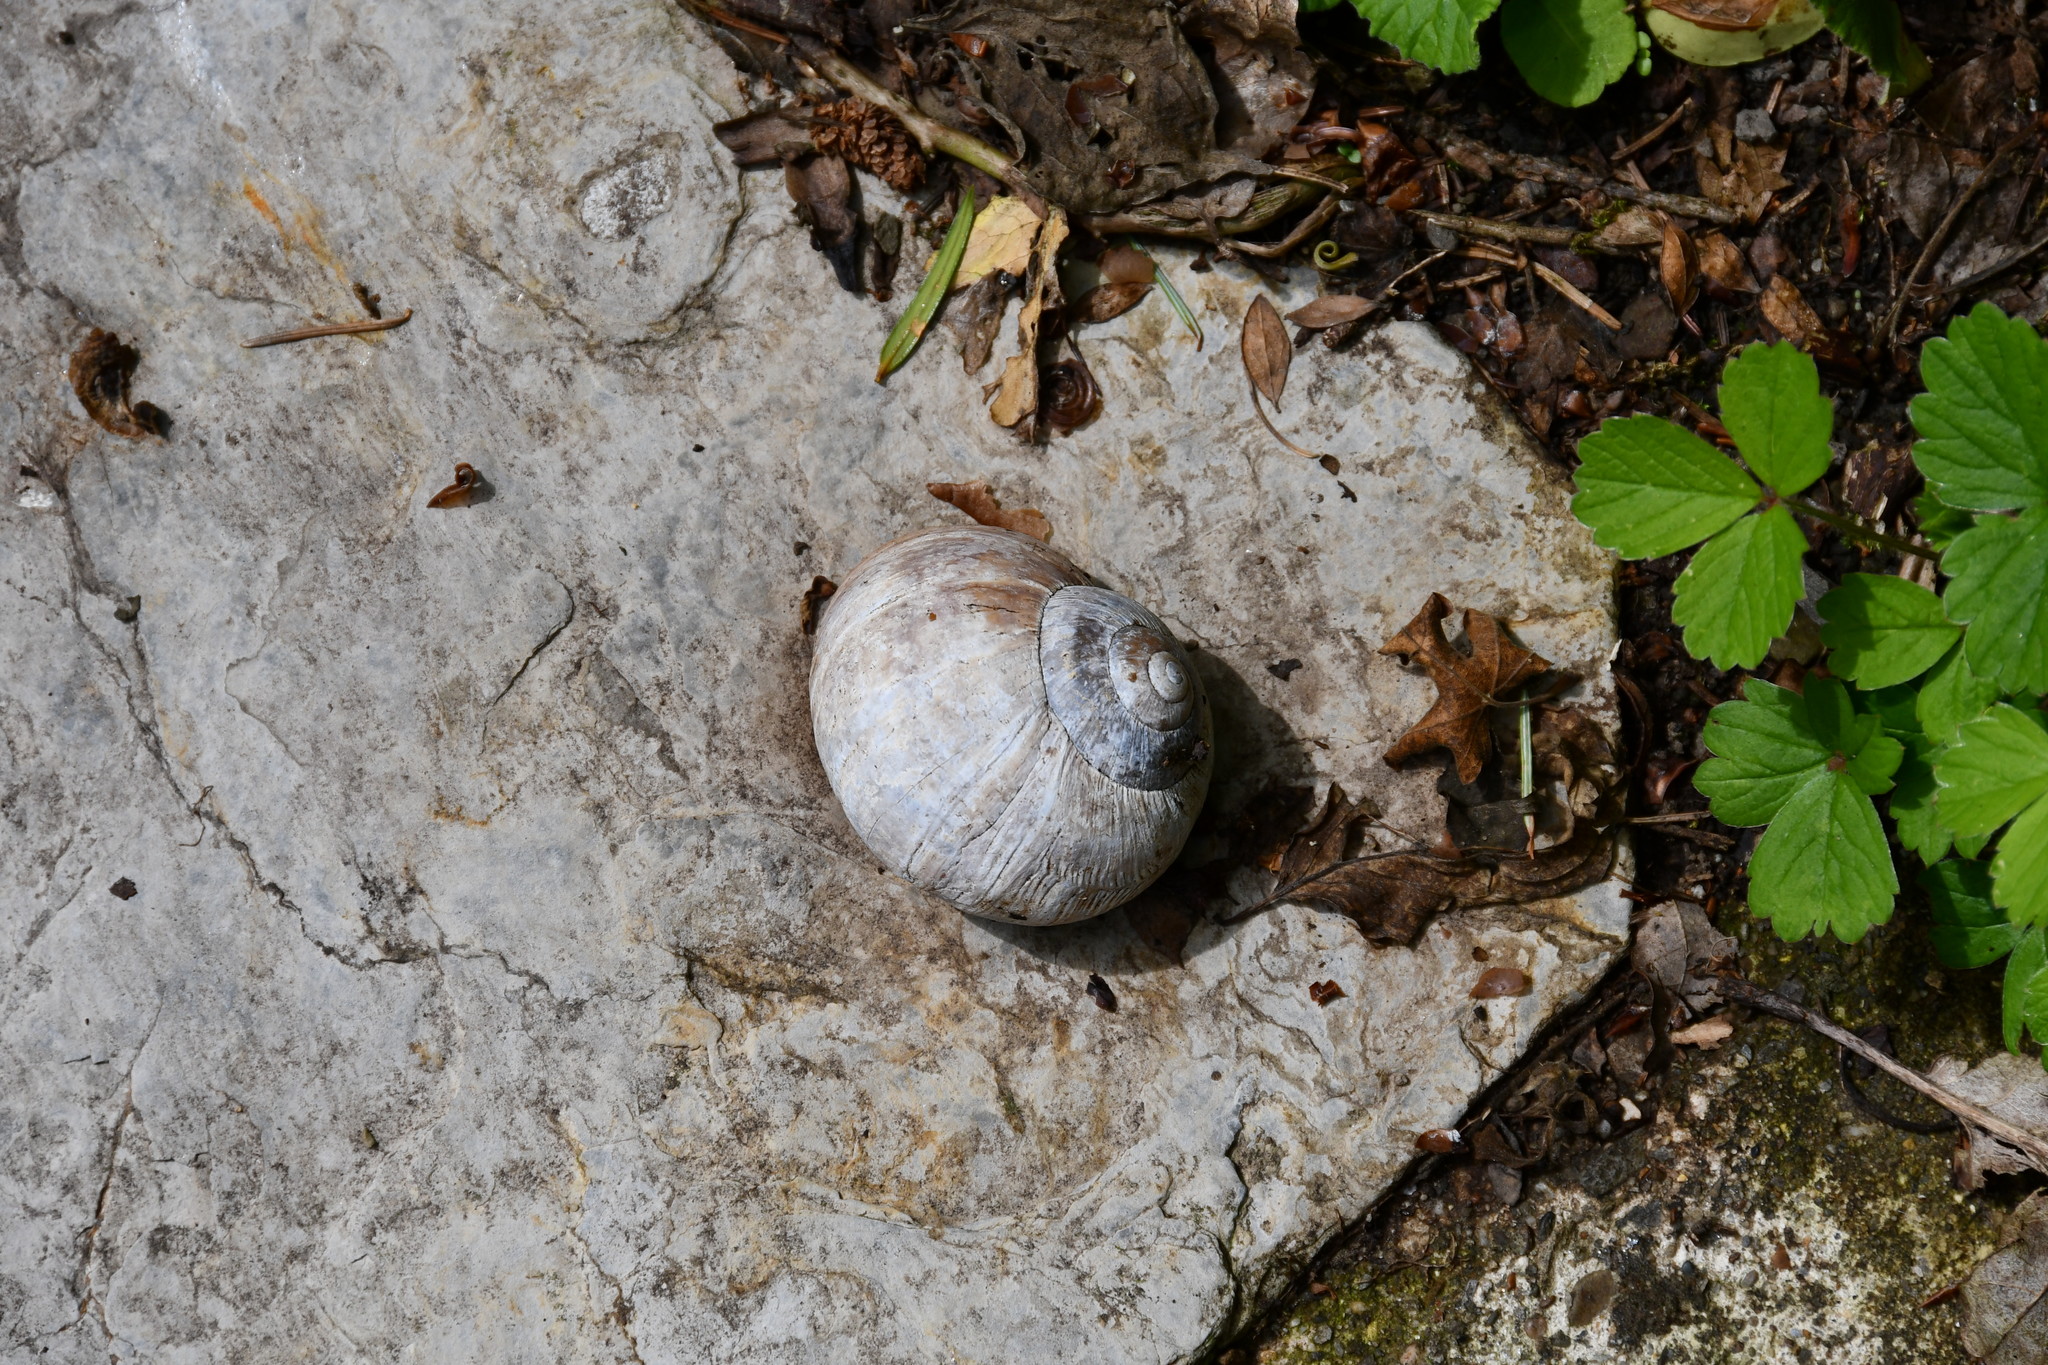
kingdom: Animalia
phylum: Mollusca
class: Gastropoda
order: Stylommatophora
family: Helicidae
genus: Helix
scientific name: Helix pomatia
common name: Roman snail
